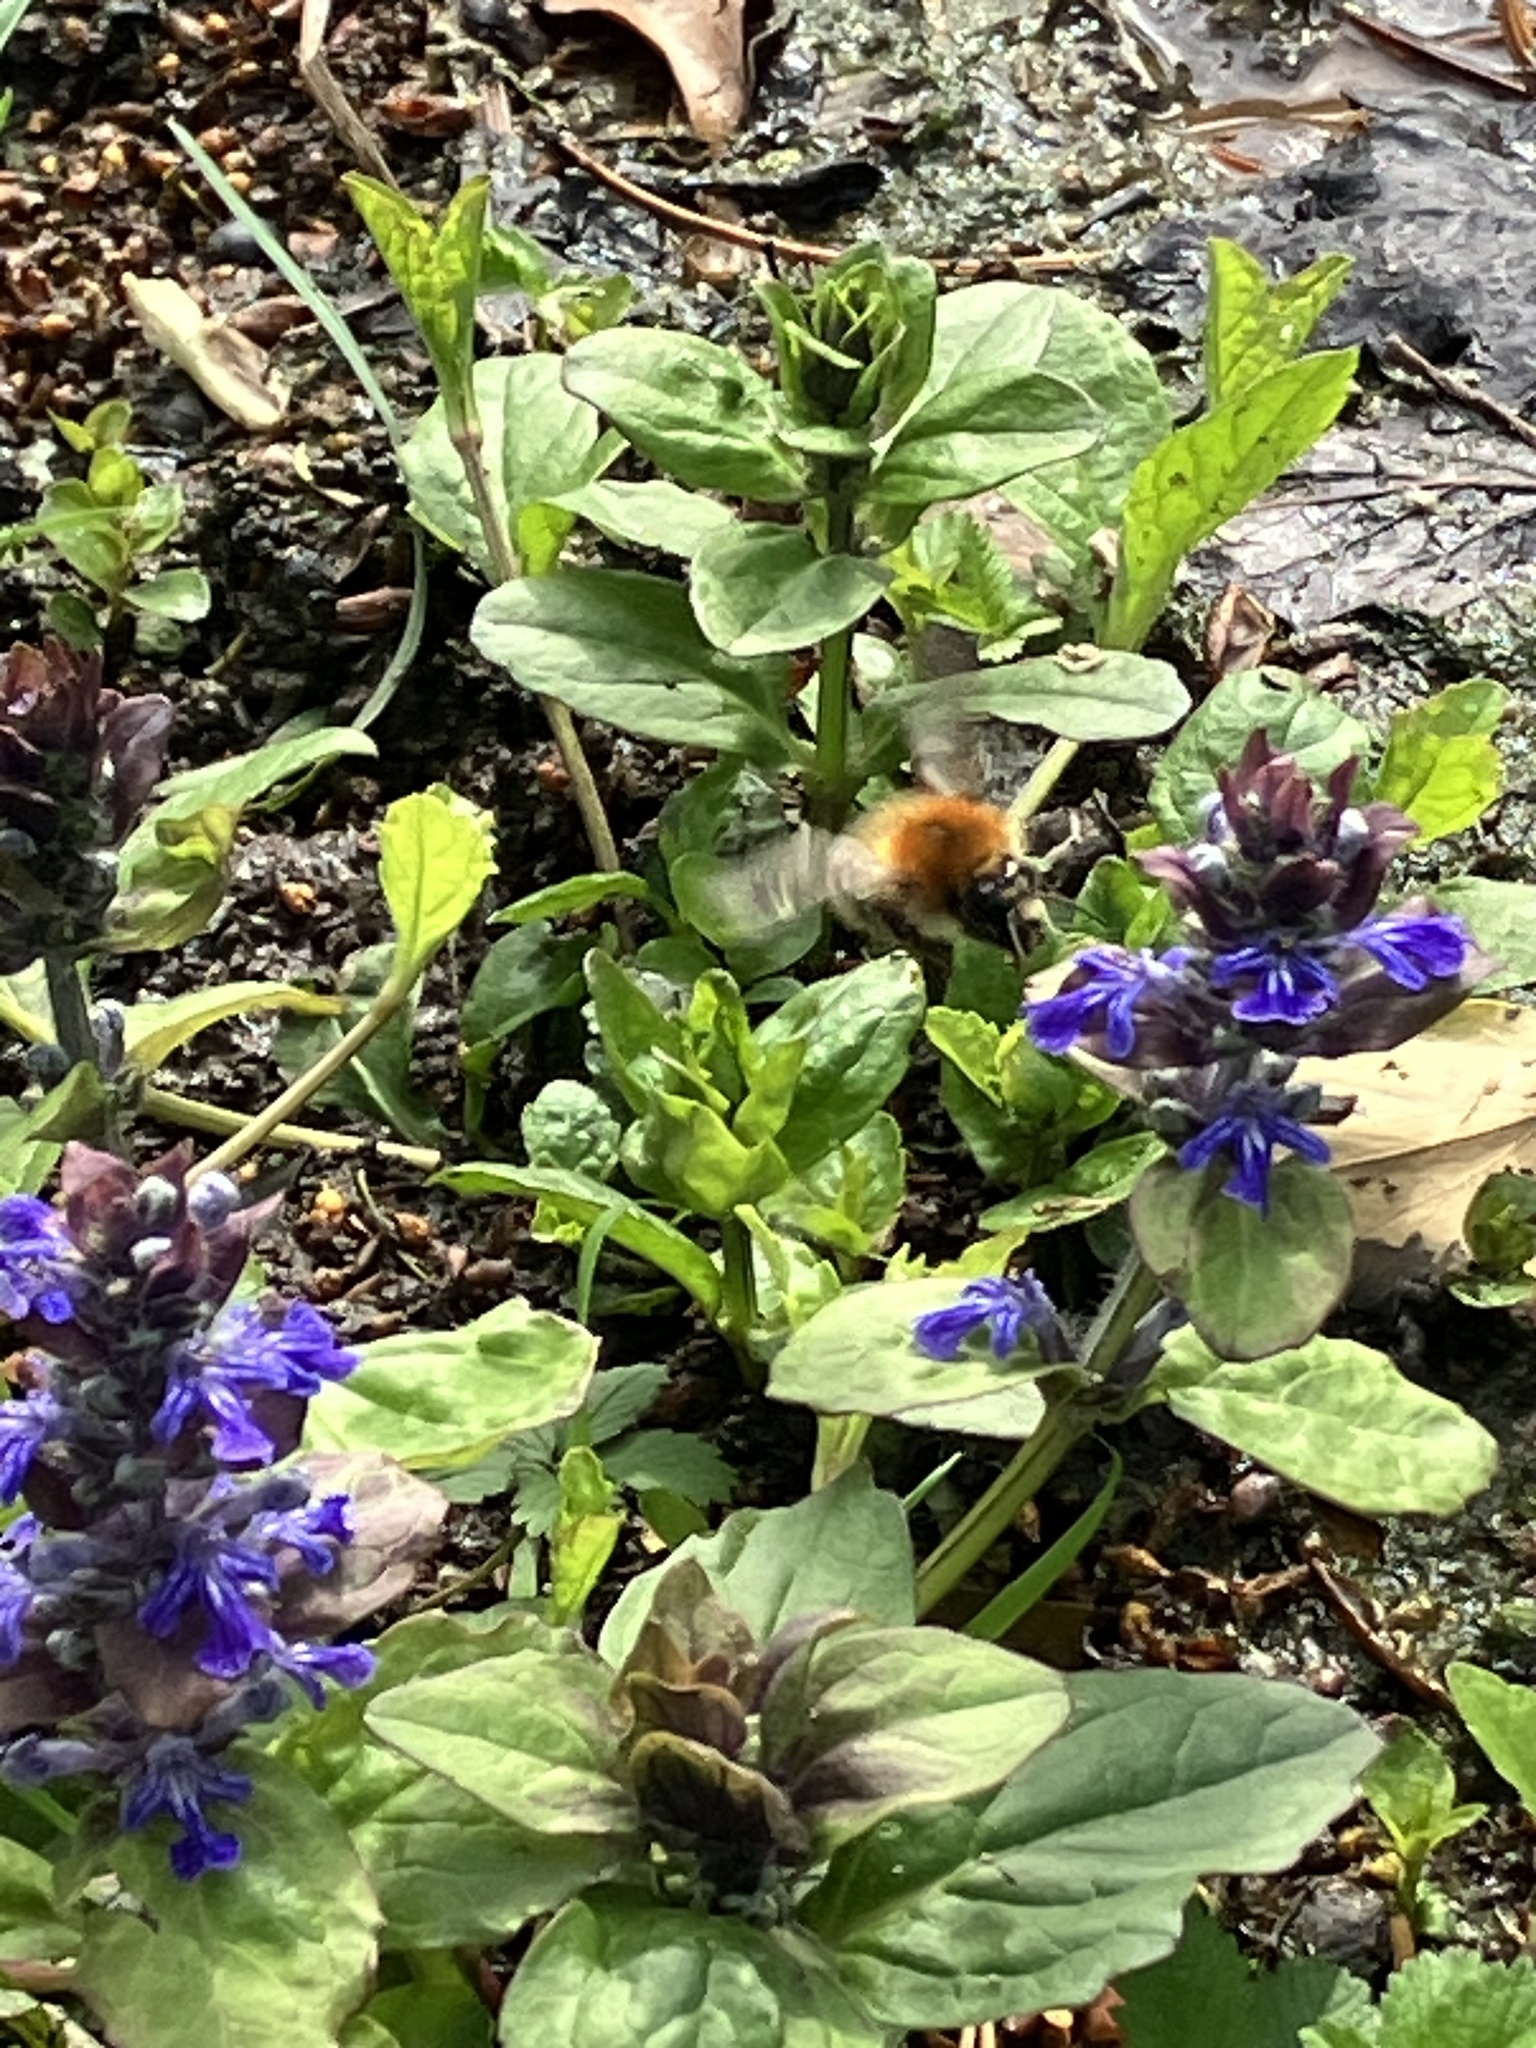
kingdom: Animalia
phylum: Arthropoda
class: Insecta
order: Hymenoptera
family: Apidae
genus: Bombus
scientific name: Bombus pascuorum
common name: Common carder bee
